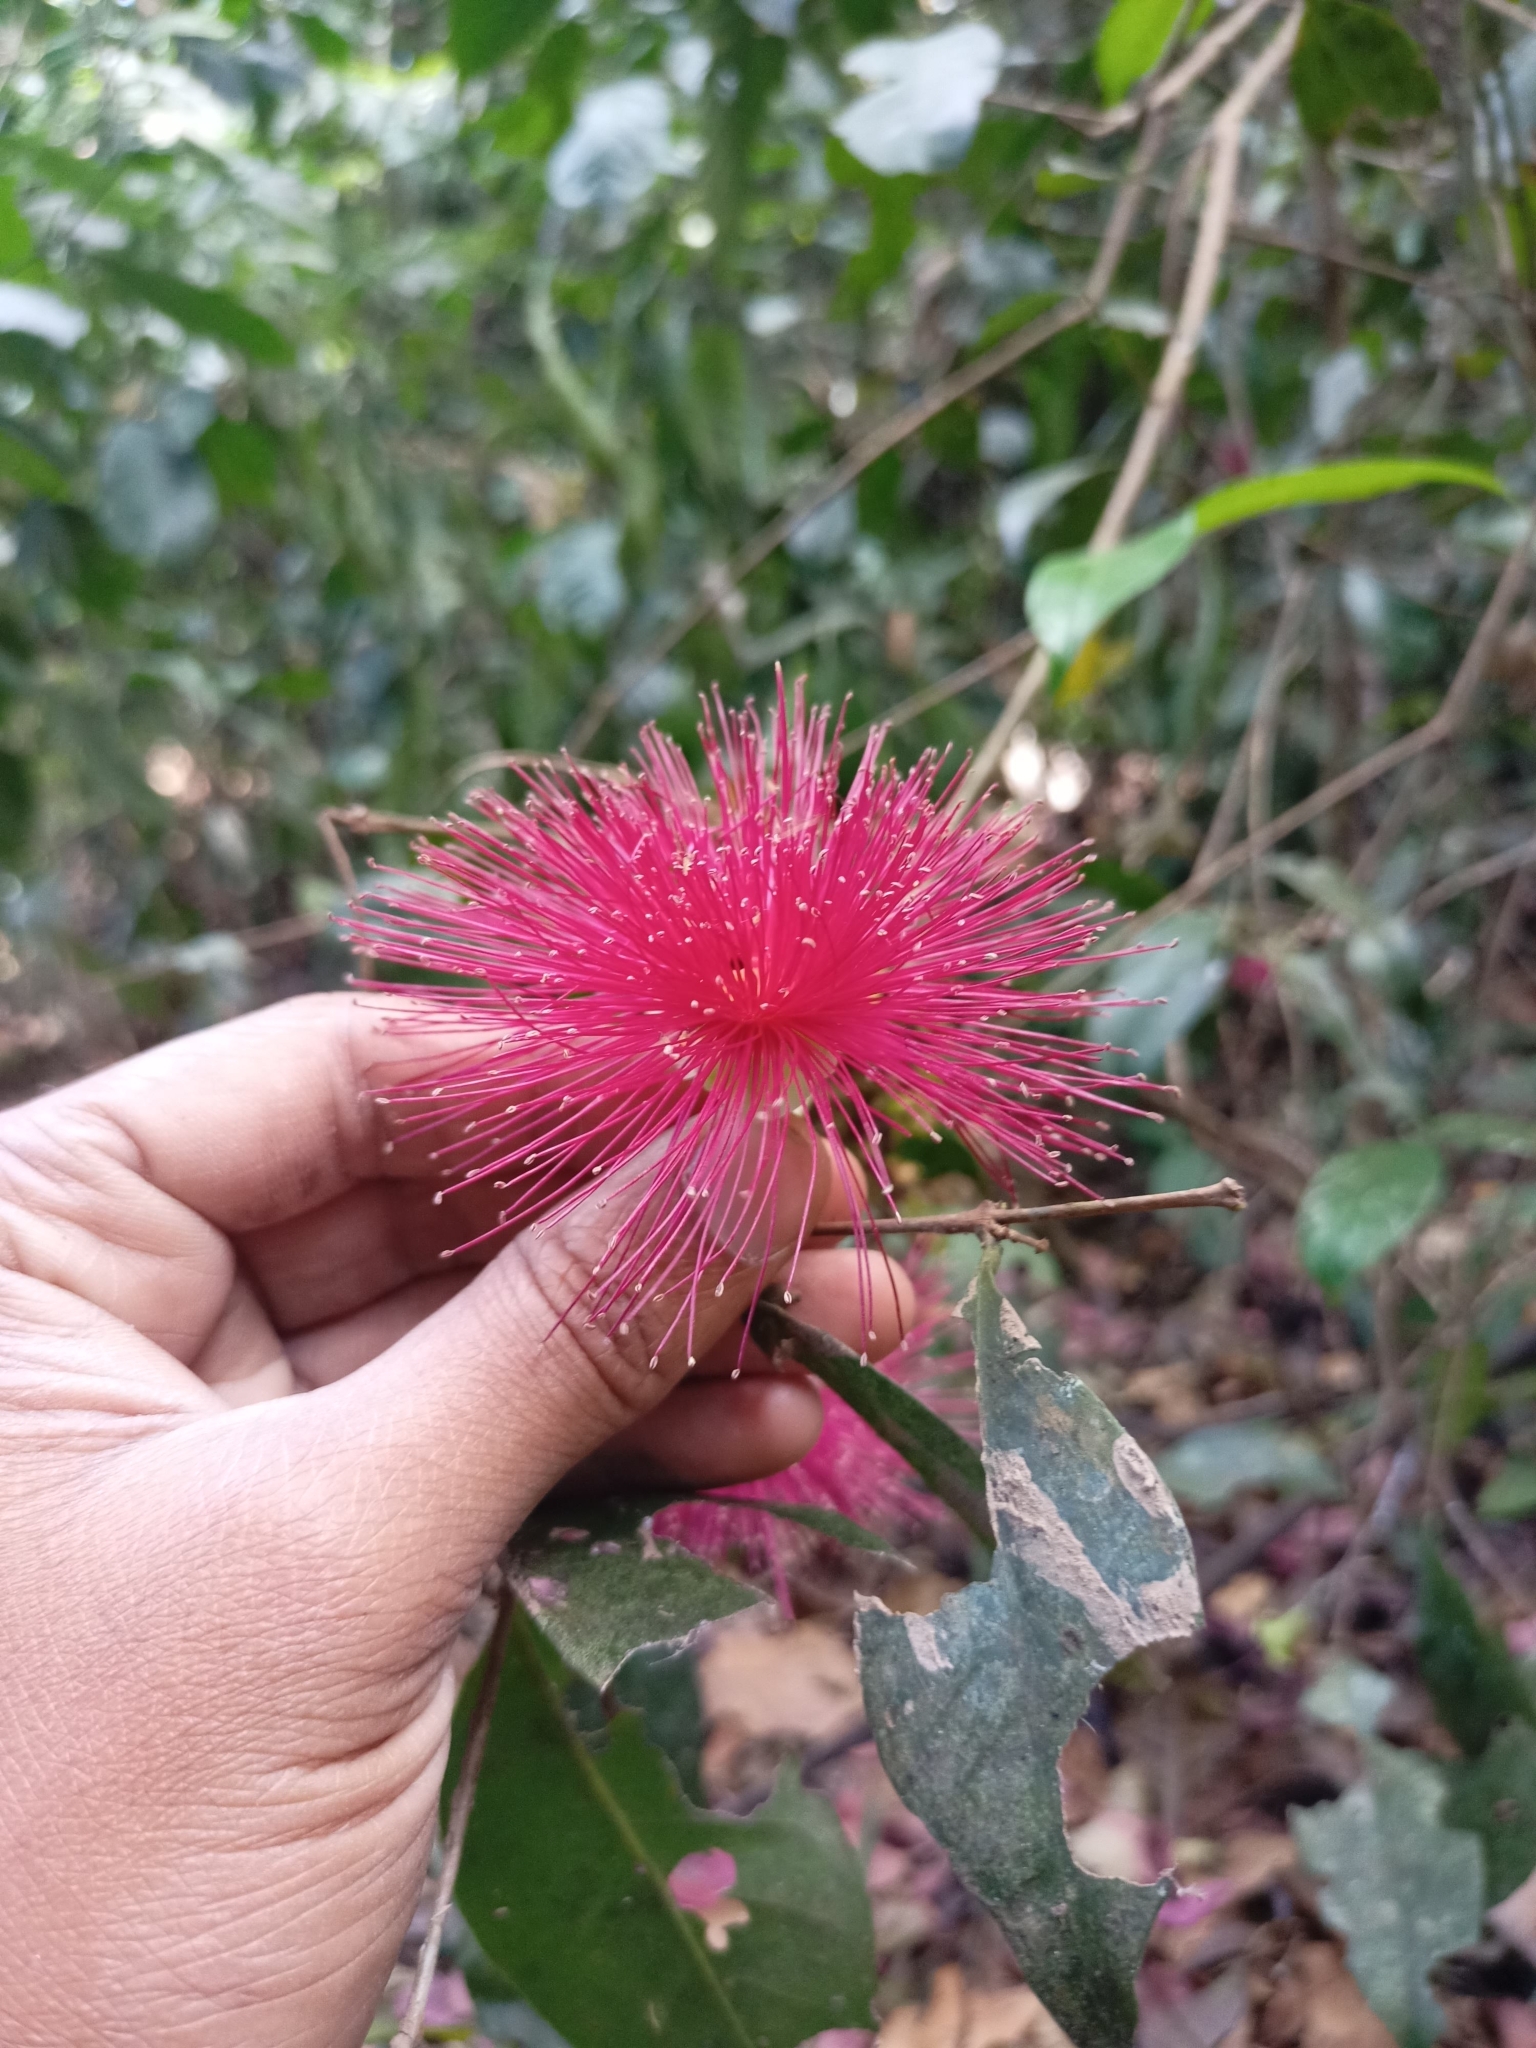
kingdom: Plantae
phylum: Tracheophyta
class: Magnoliopsida
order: Myrtales
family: Myrtaceae
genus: Syzygium
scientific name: Syzygium laetum
